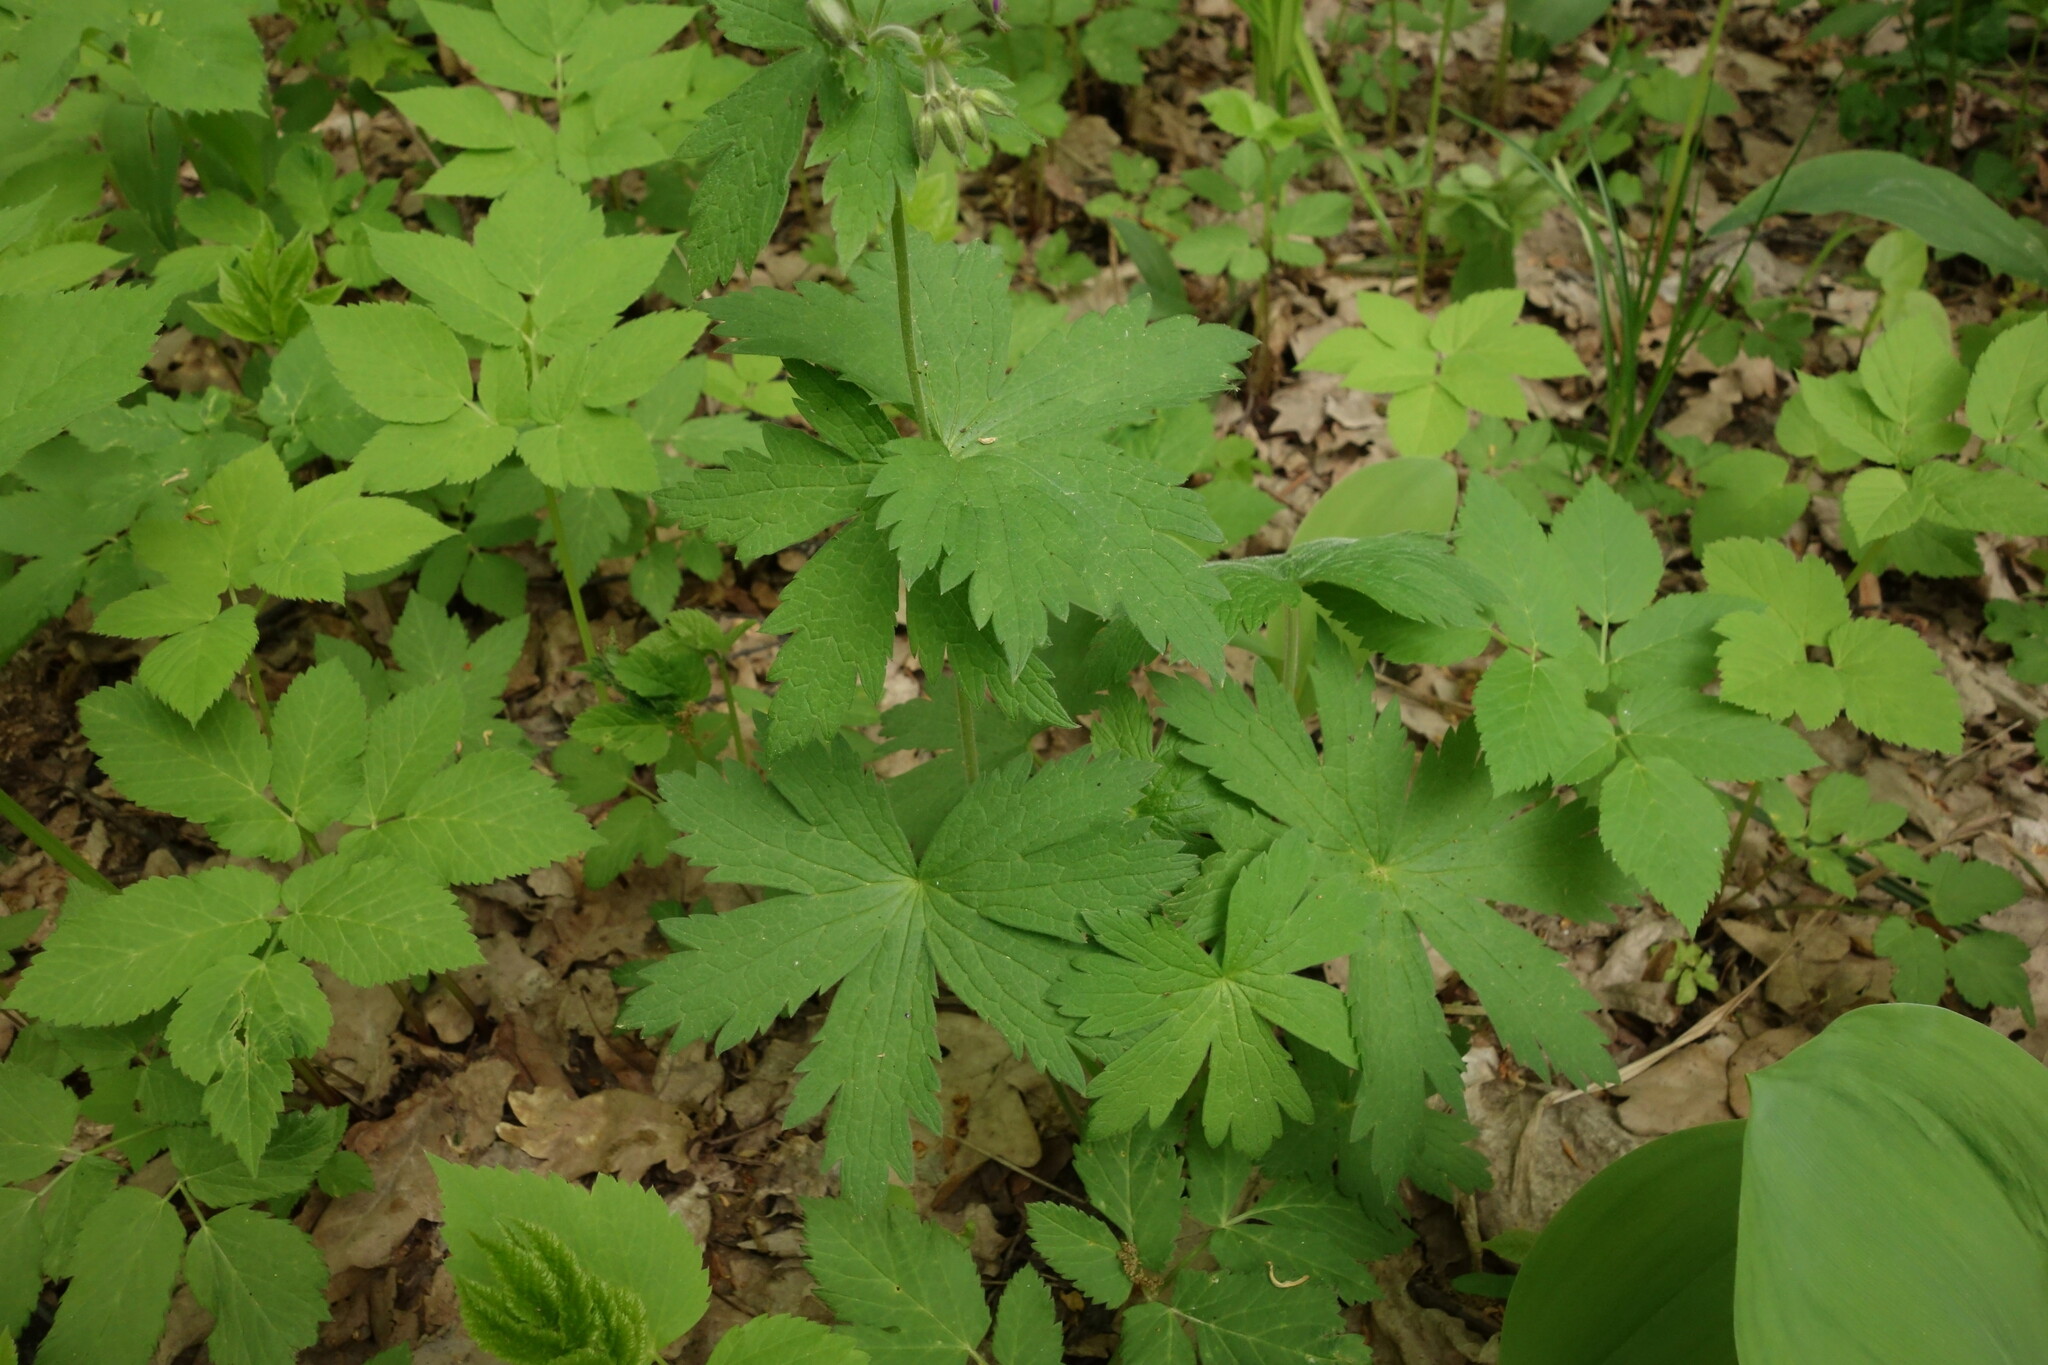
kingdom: Plantae
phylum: Tracheophyta
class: Magnoliopsida
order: Geraniales
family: Geraniaceae
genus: Geranium
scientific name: Geranium sylvaticum
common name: Wood crane's-bill
